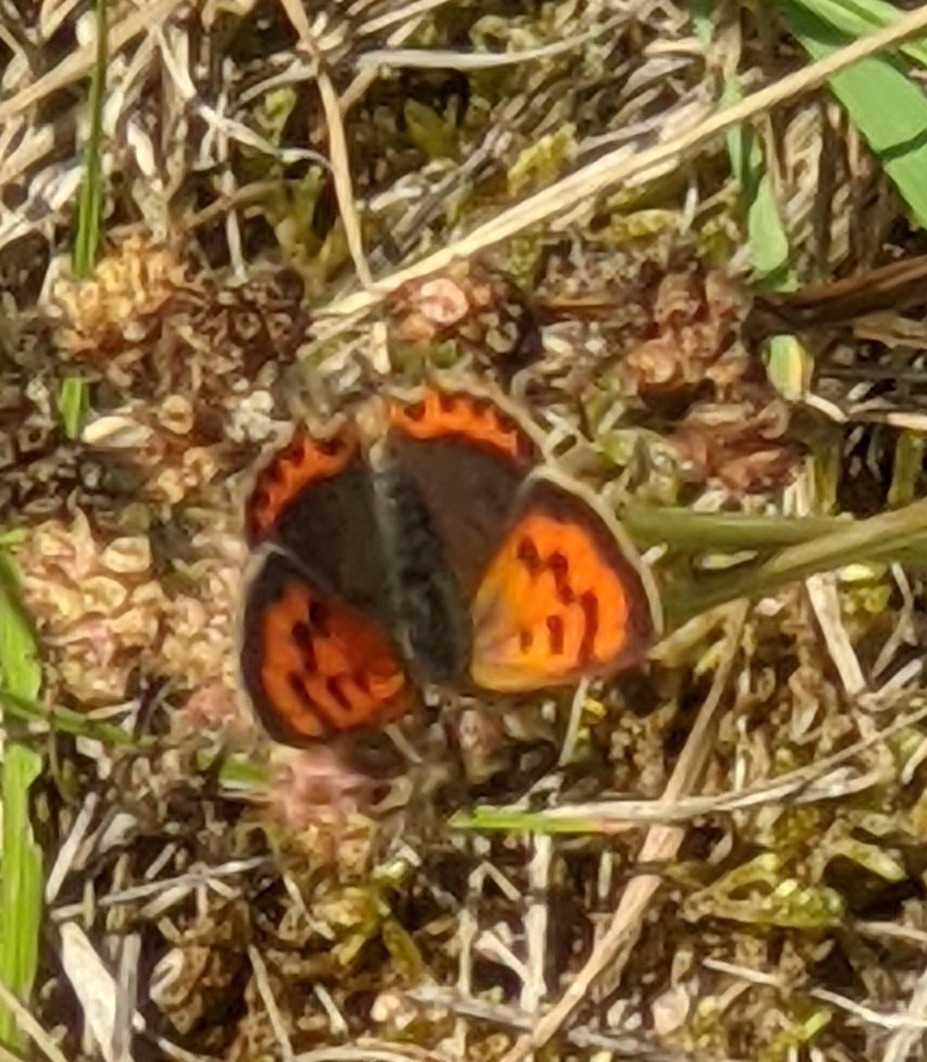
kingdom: Animalia
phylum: Arthropoda
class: Insecta
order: Lepidoptera
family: Lycaenidae
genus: Lycaena
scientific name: Lycaena phlaeas
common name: Small copper
